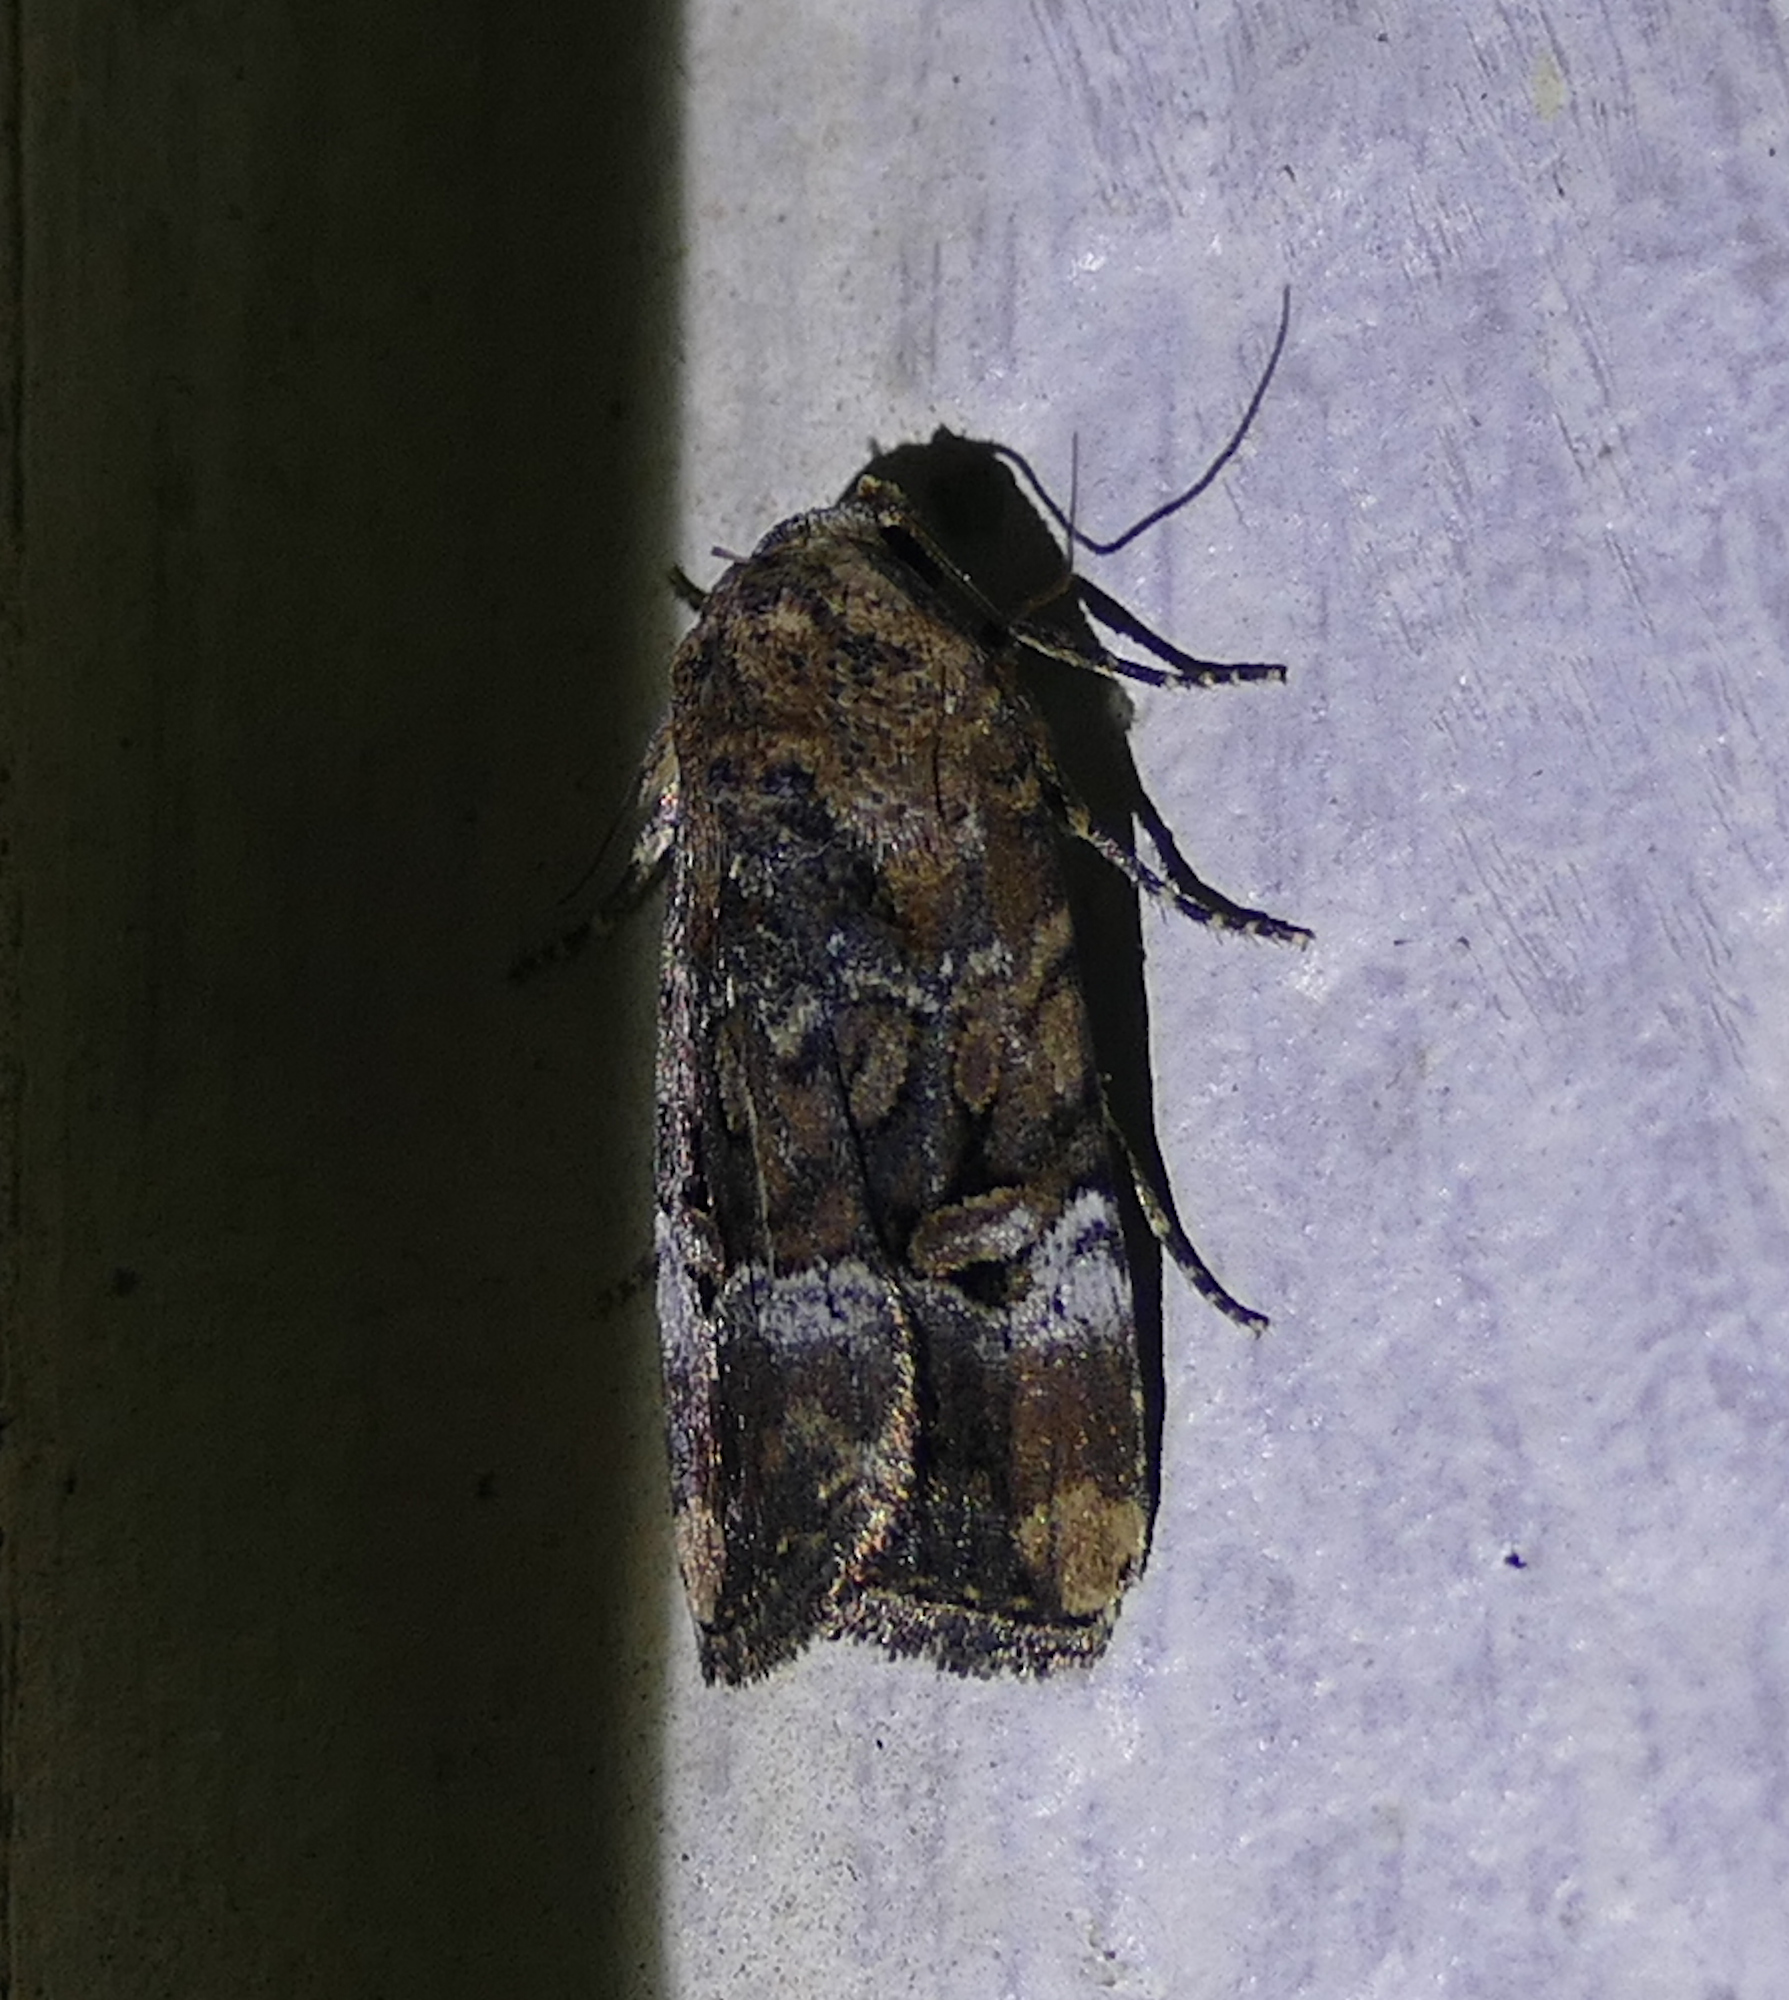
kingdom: Animalia
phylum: Arthropoda
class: Insecta
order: Lepidoptera
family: Noctuidae
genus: Elaphria
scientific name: Elaphria chalcedonia
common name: Chalcedony midget
